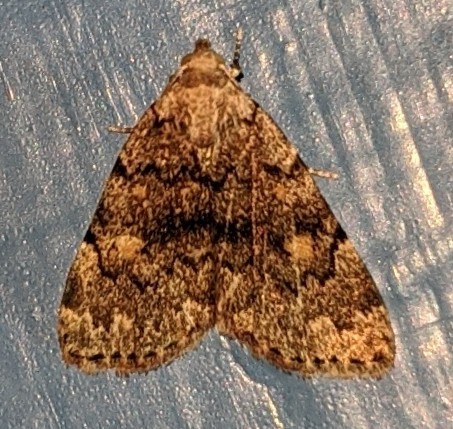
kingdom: Animalia
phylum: Arthropoda
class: Insecta
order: Lepidoptera
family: Erebidae
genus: Idia
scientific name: Idia aemula
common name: Common idia moth
